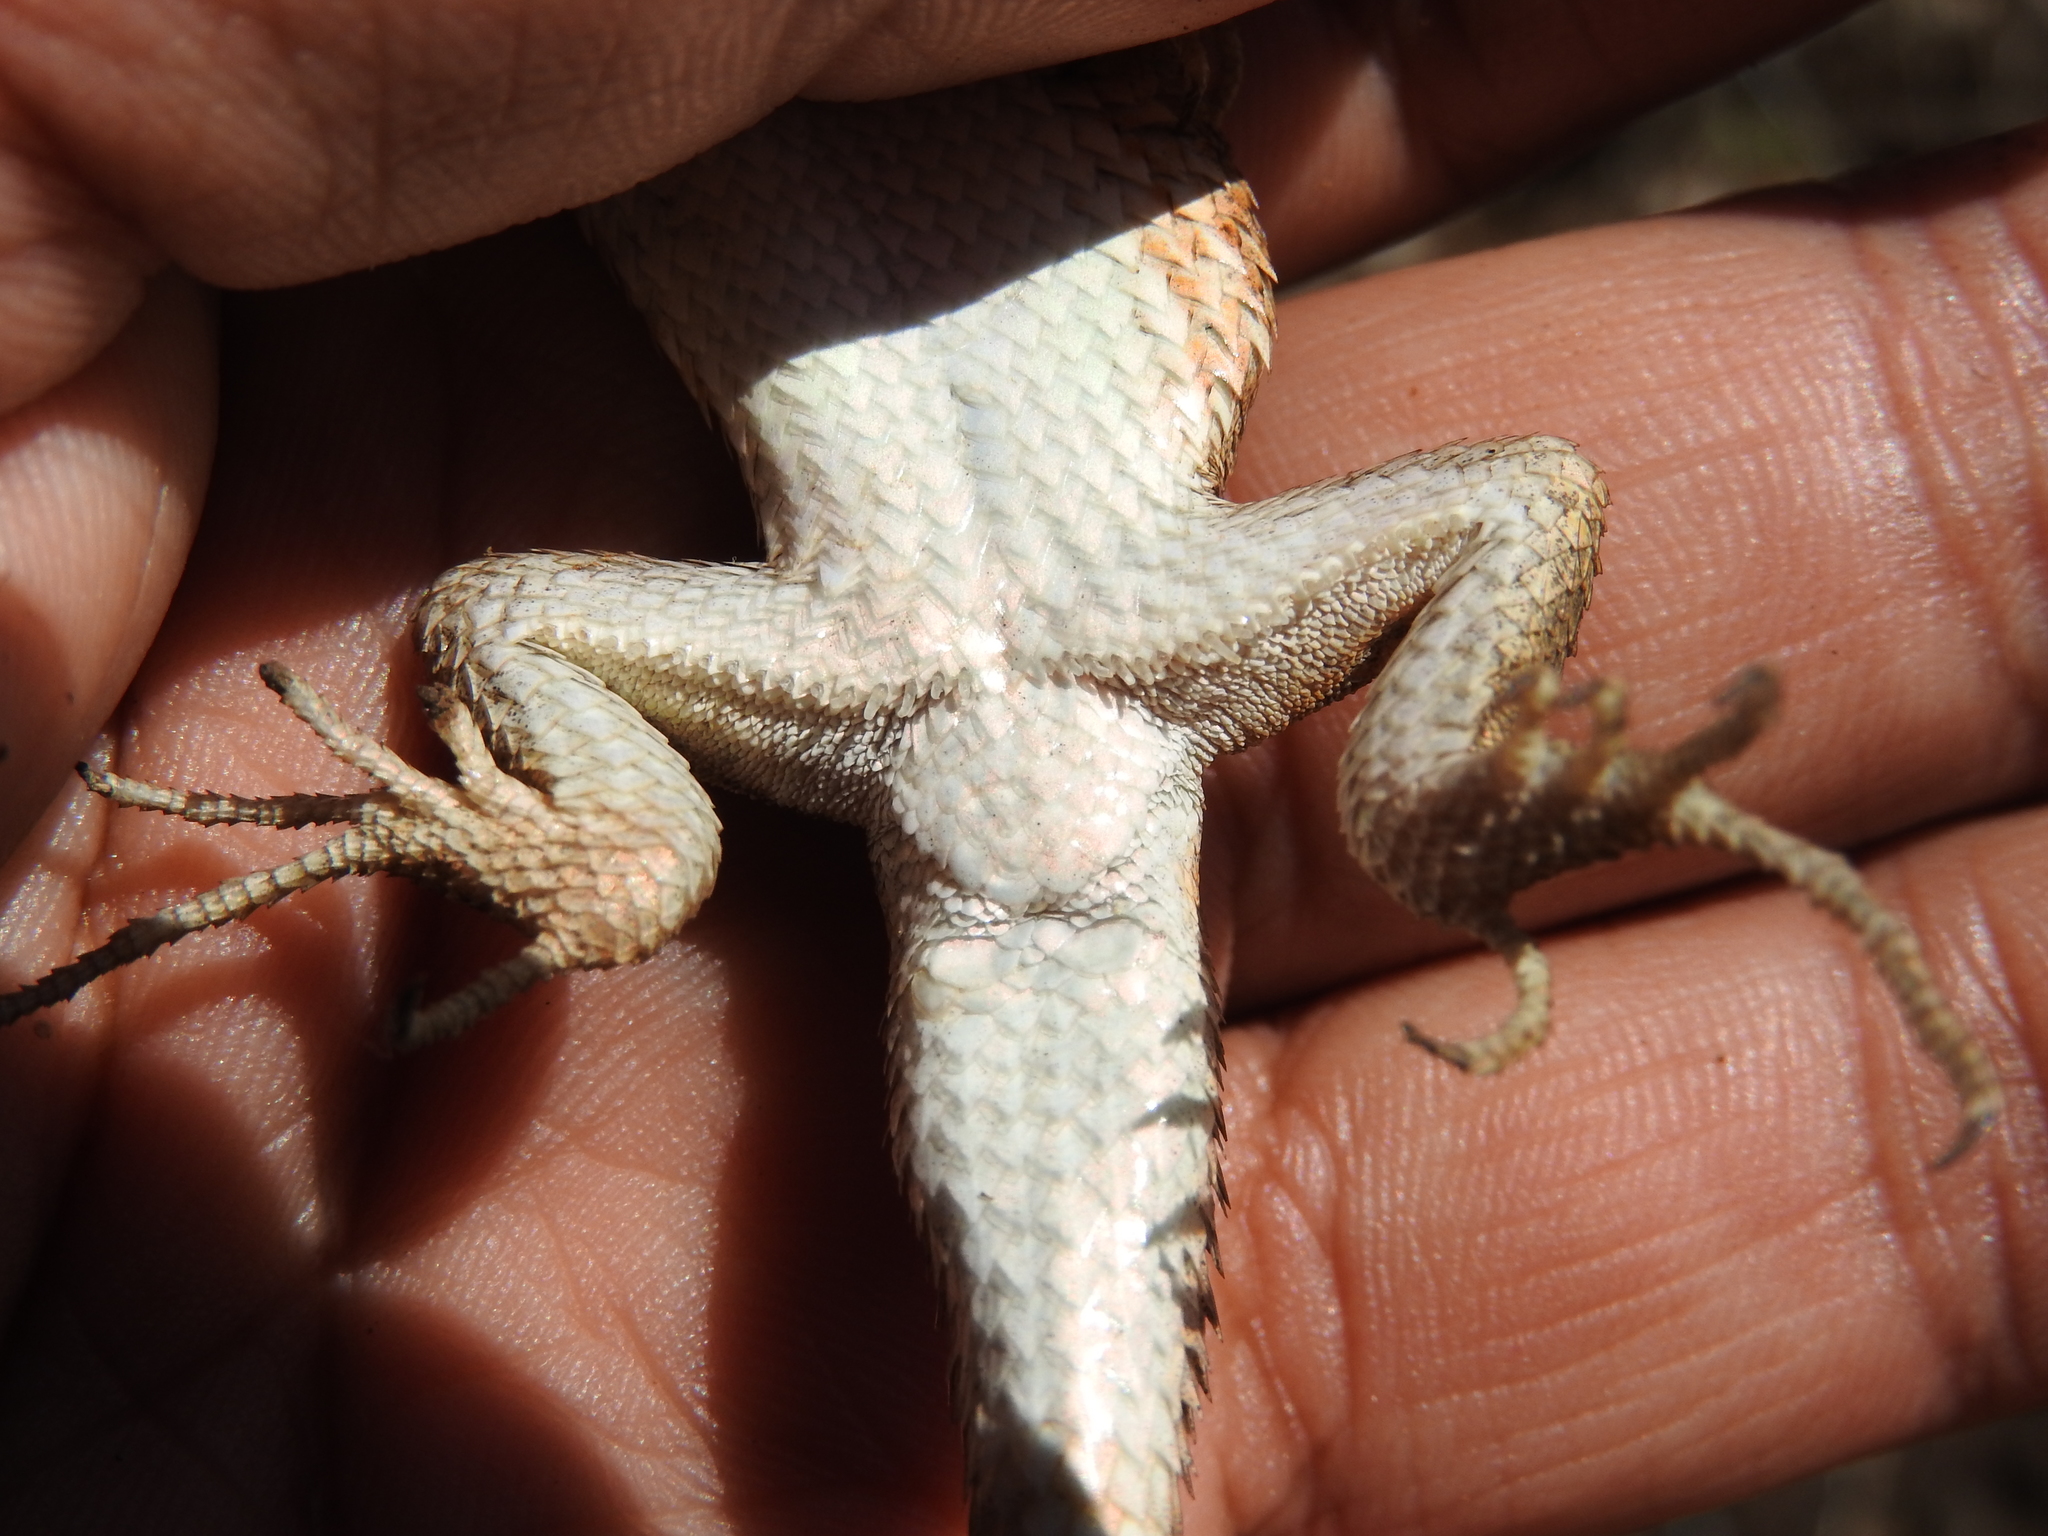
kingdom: Animalia
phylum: Chordata
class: Squamata
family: Phrynosomatidae
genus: Sceloporus
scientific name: Sceloporus subniger
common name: Plateau bunchgrass lizard
